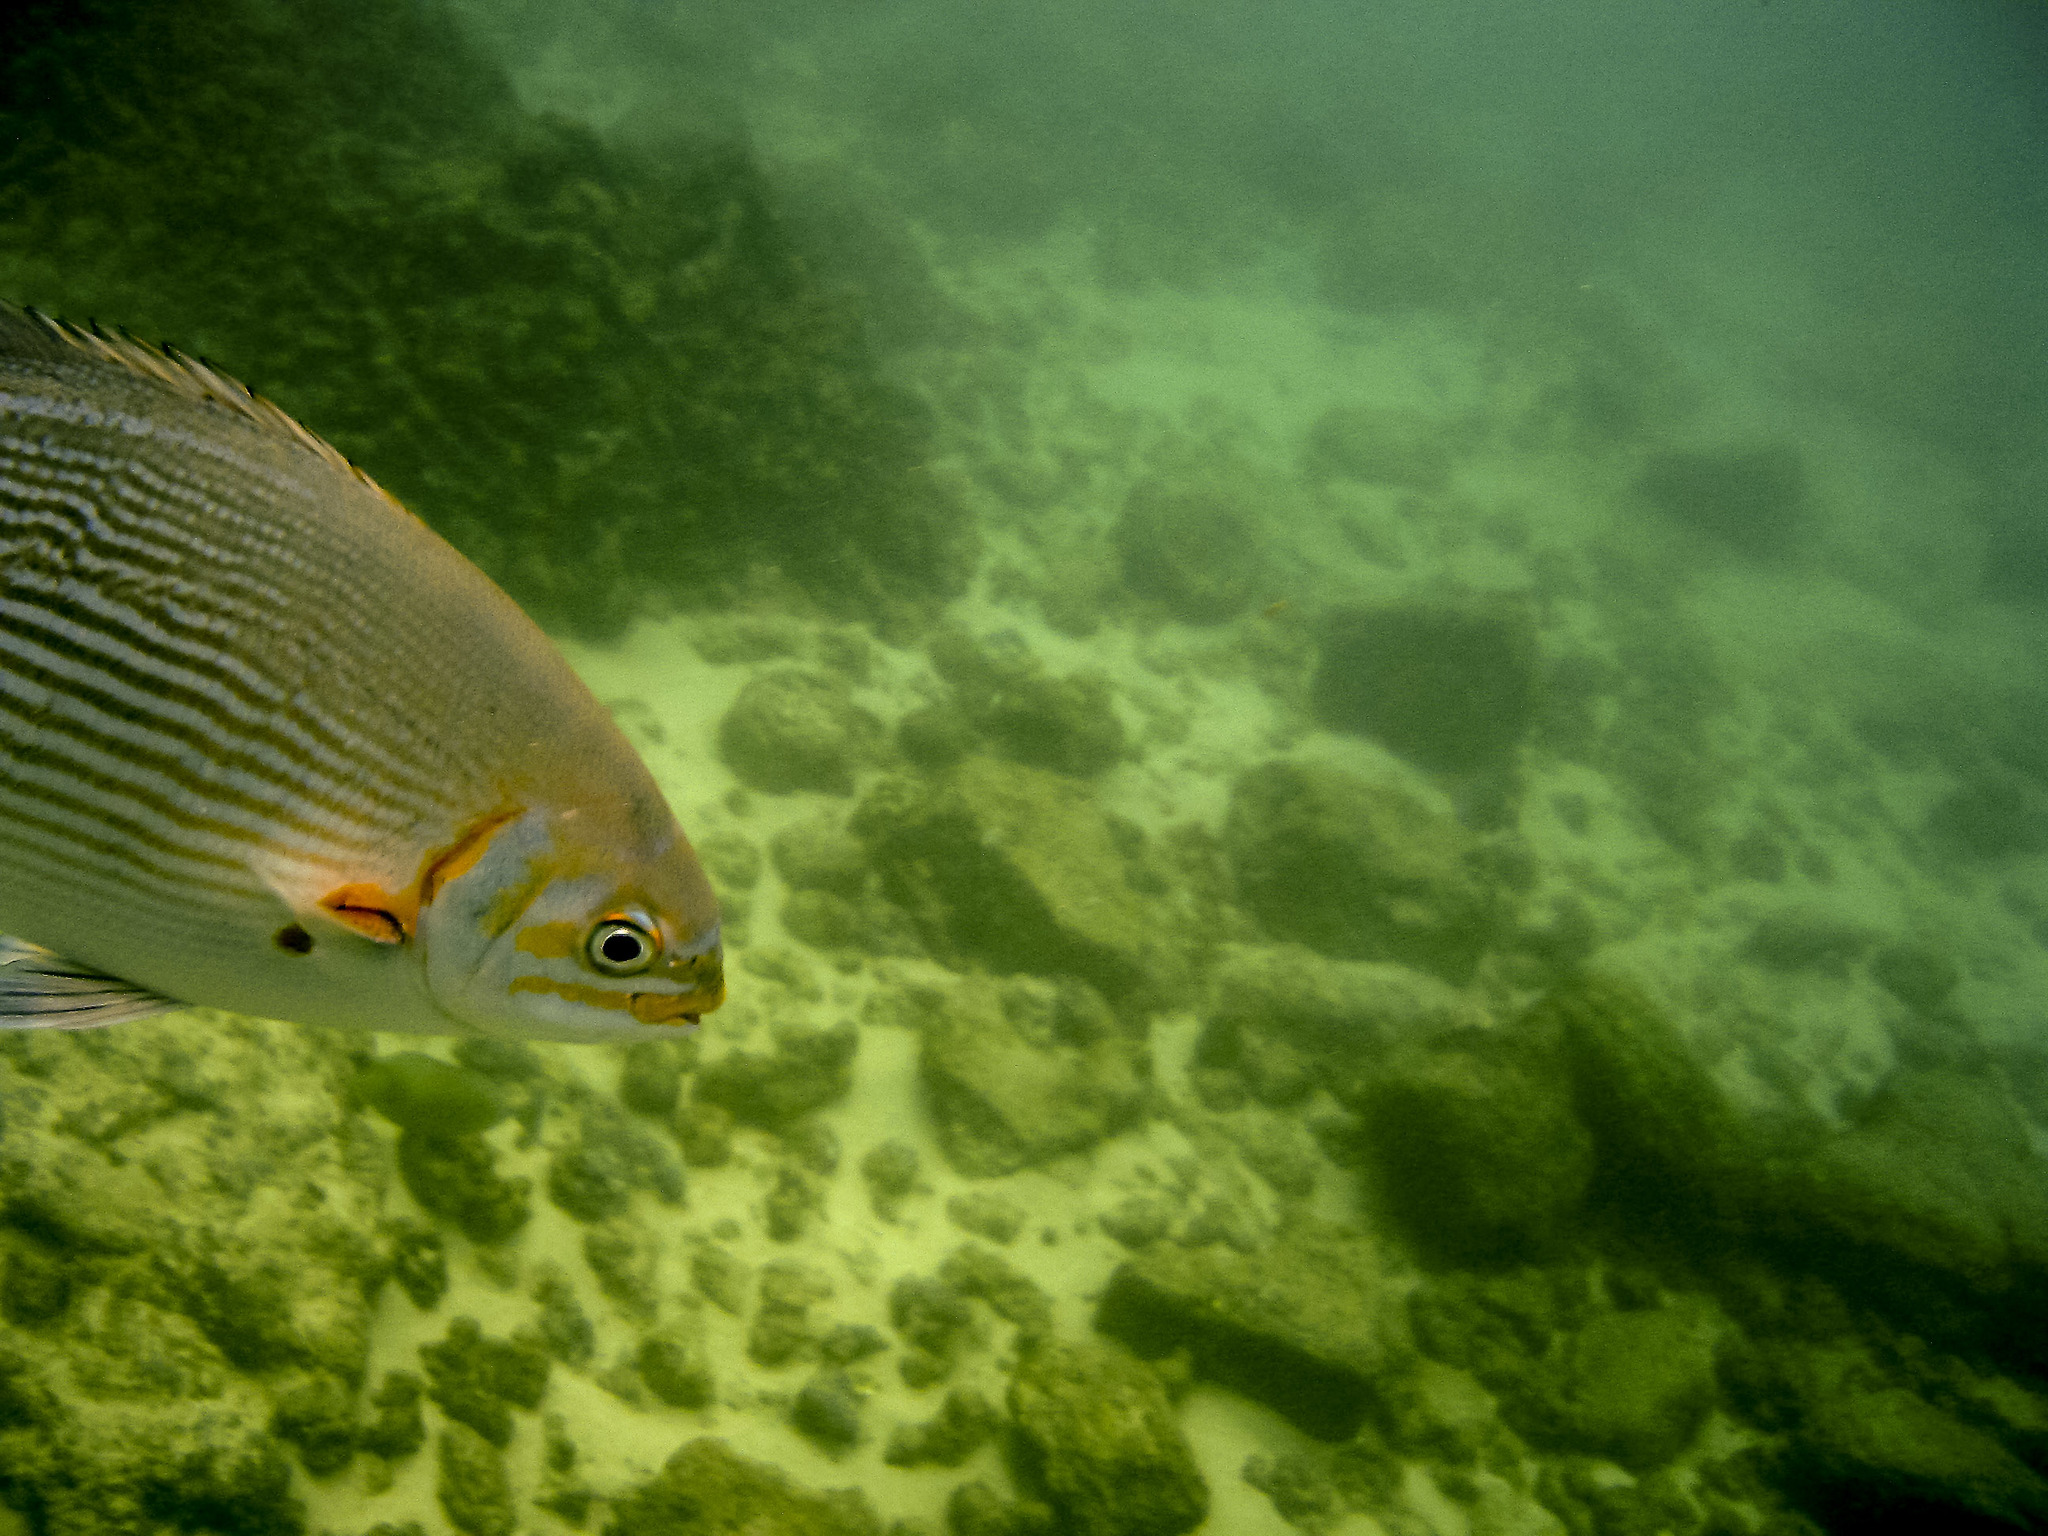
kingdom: Animalia
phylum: Chordata
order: Perciformes
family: Kyphosidae
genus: Kyphosus
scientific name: Kyphosus vaigiensis
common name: Brassy chub
